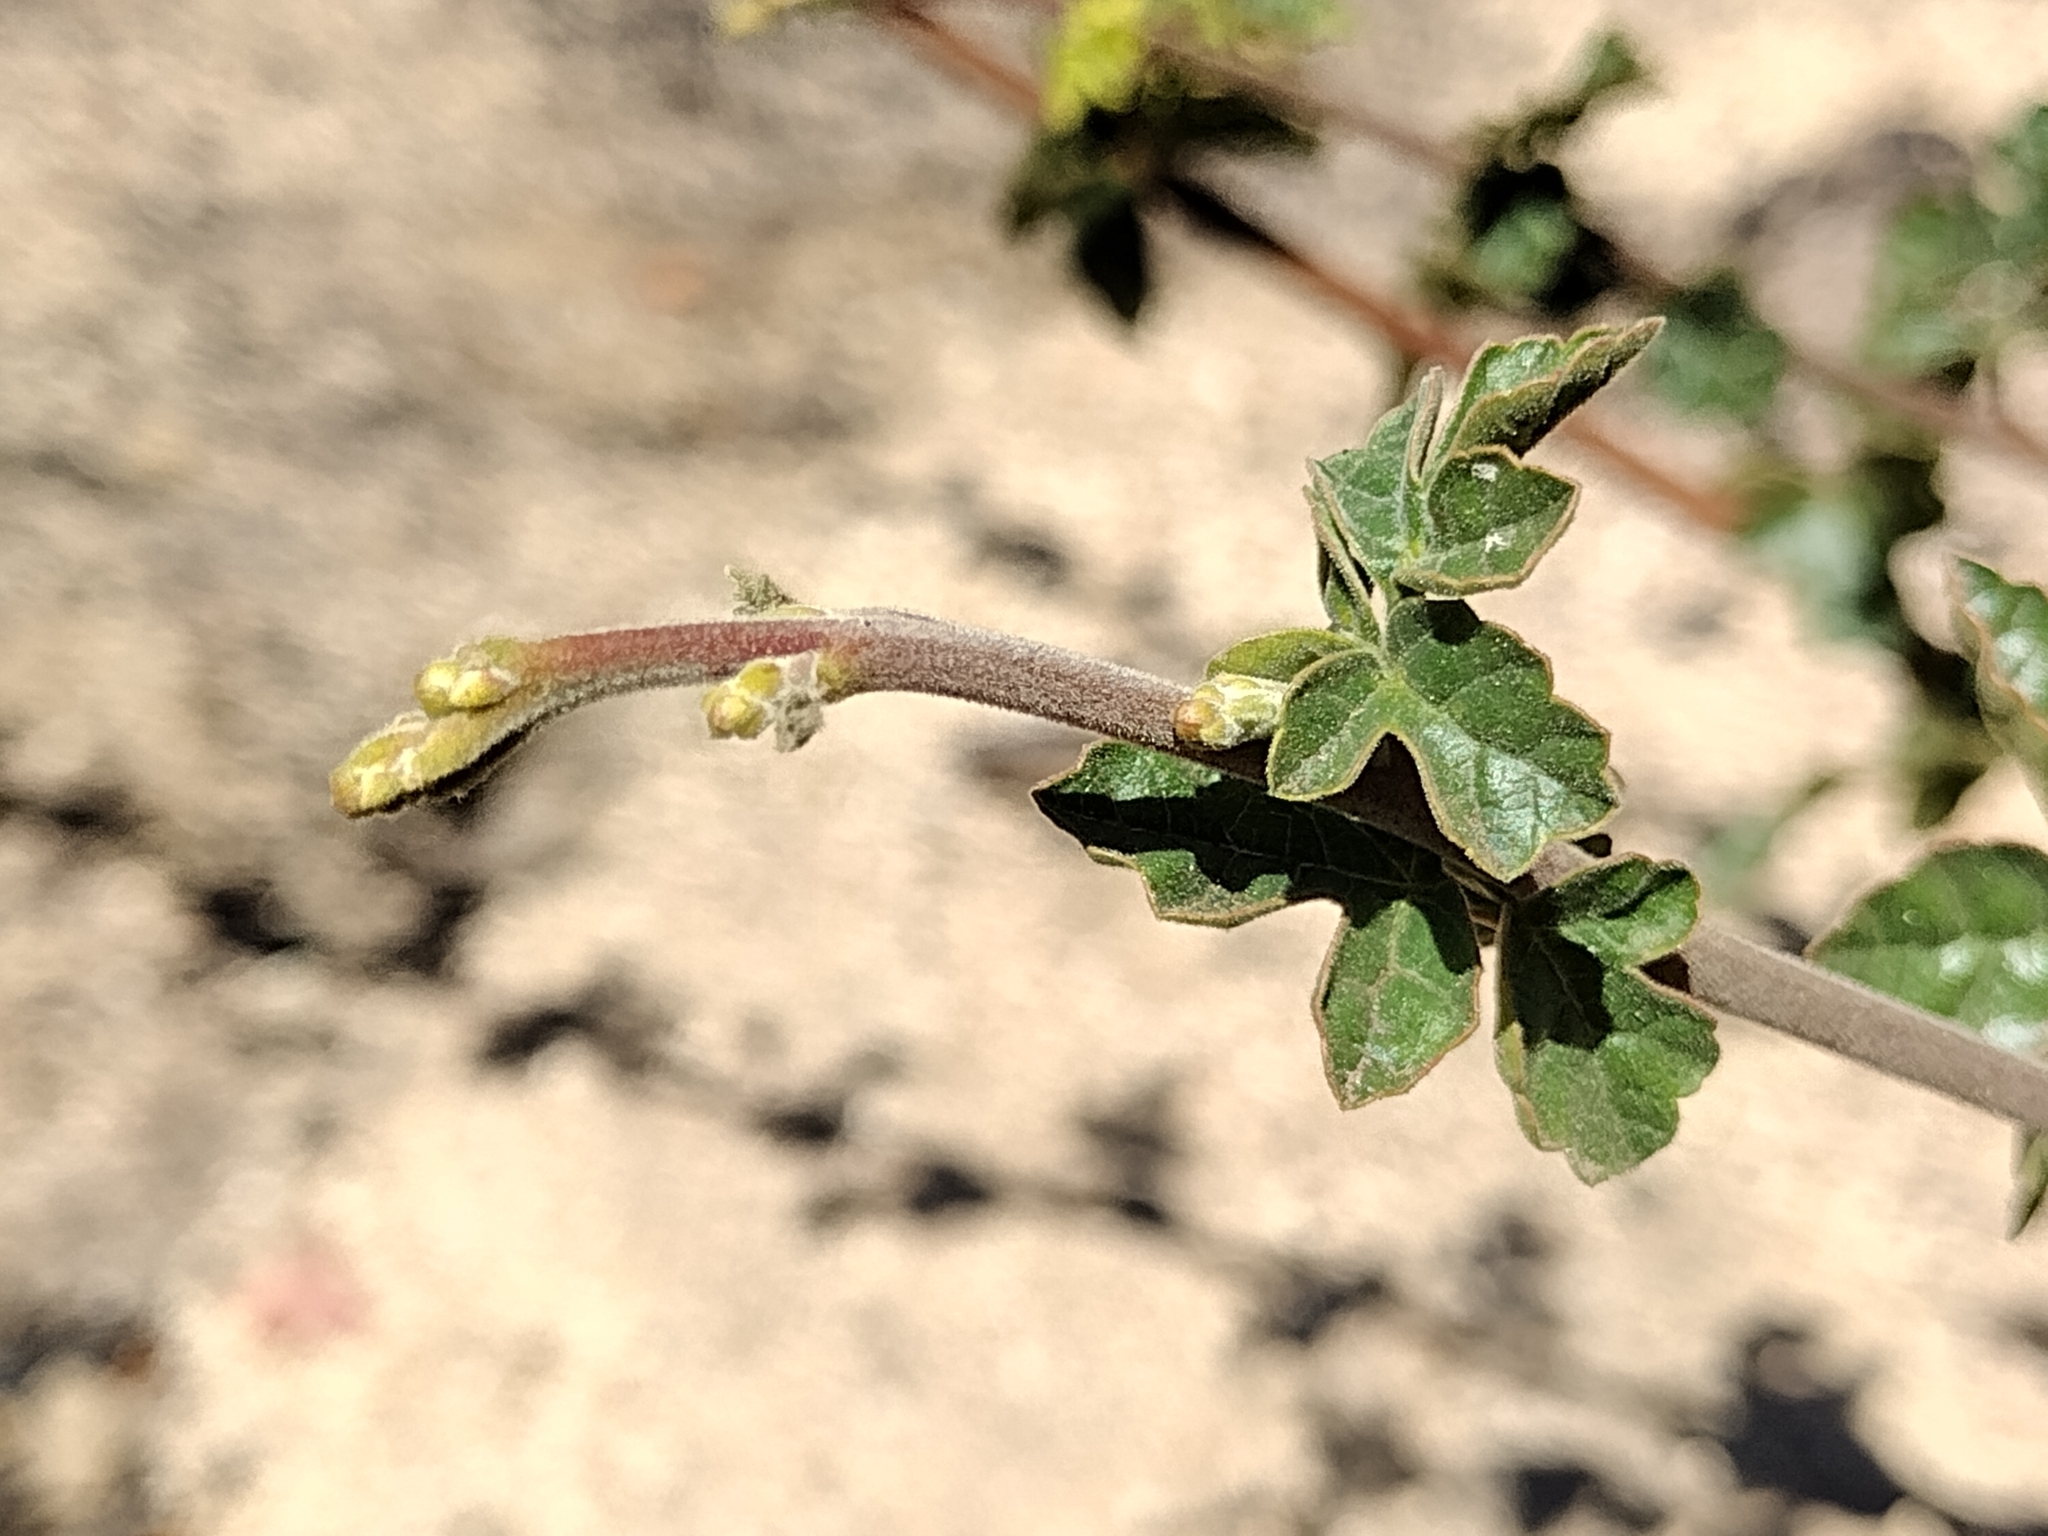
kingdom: Plantae
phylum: Tracheophyta
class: Magnoliopsida
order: Sapindales
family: Anacardiaceae
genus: Rhus
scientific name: Rhus aromatica
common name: Aromatic sumac
